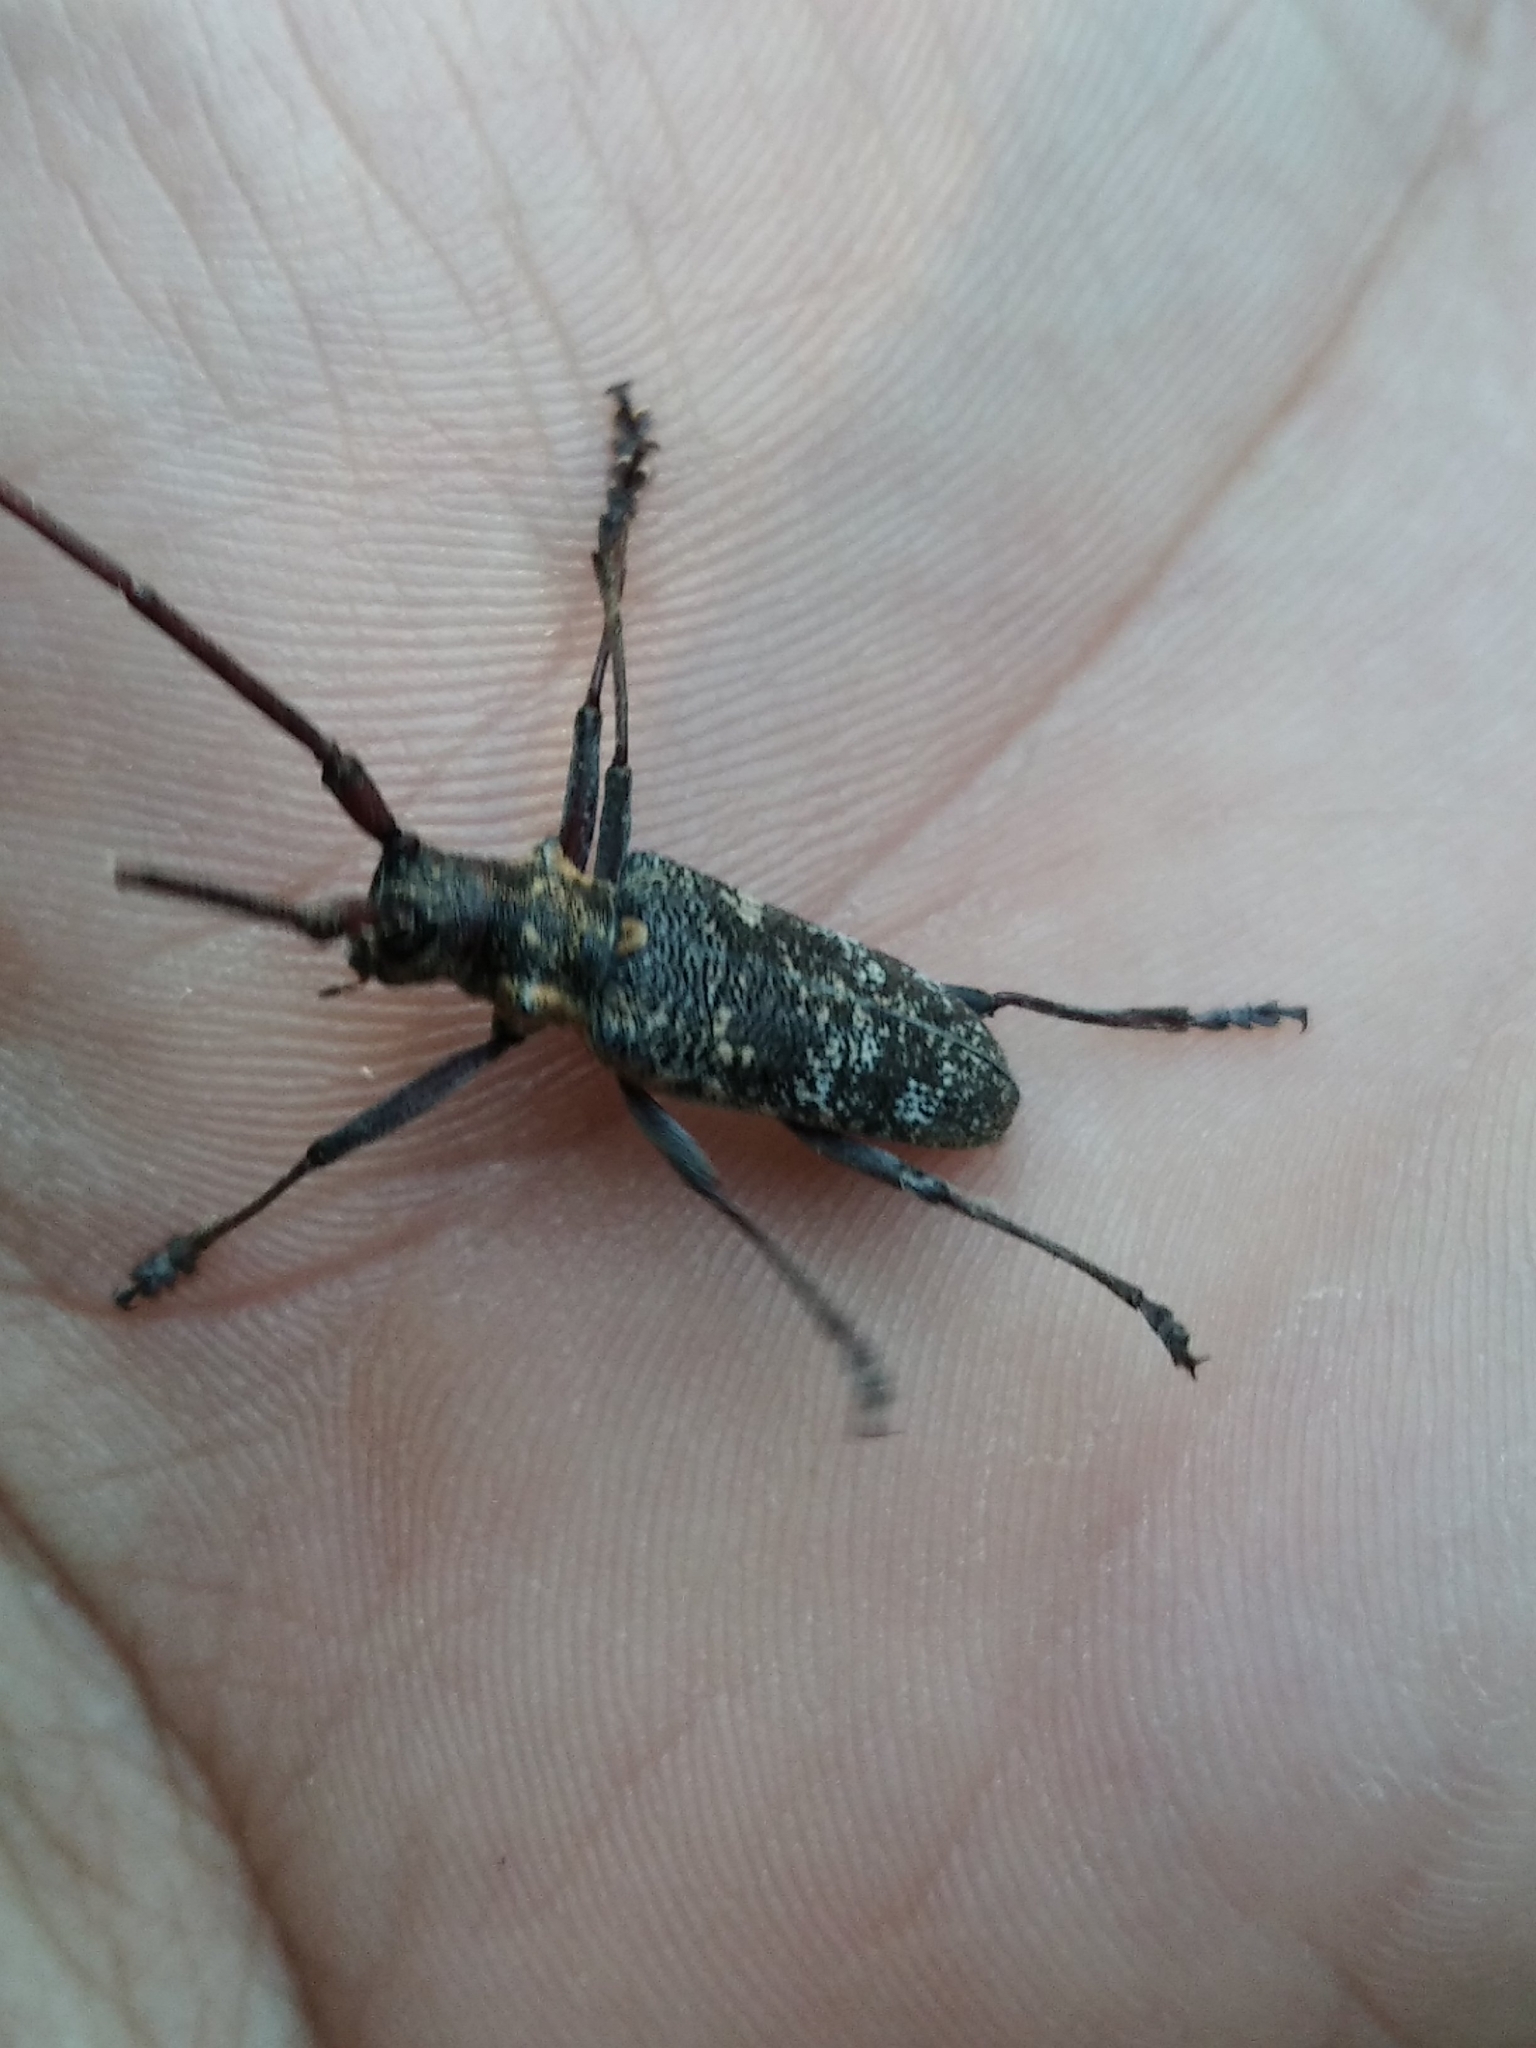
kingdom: Animalia
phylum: Arthropoda
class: Insecta
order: Coleoptera
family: Cerambycidae
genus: Monochamus
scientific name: Monochamus galloprovincialis
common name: Pine sawyer
